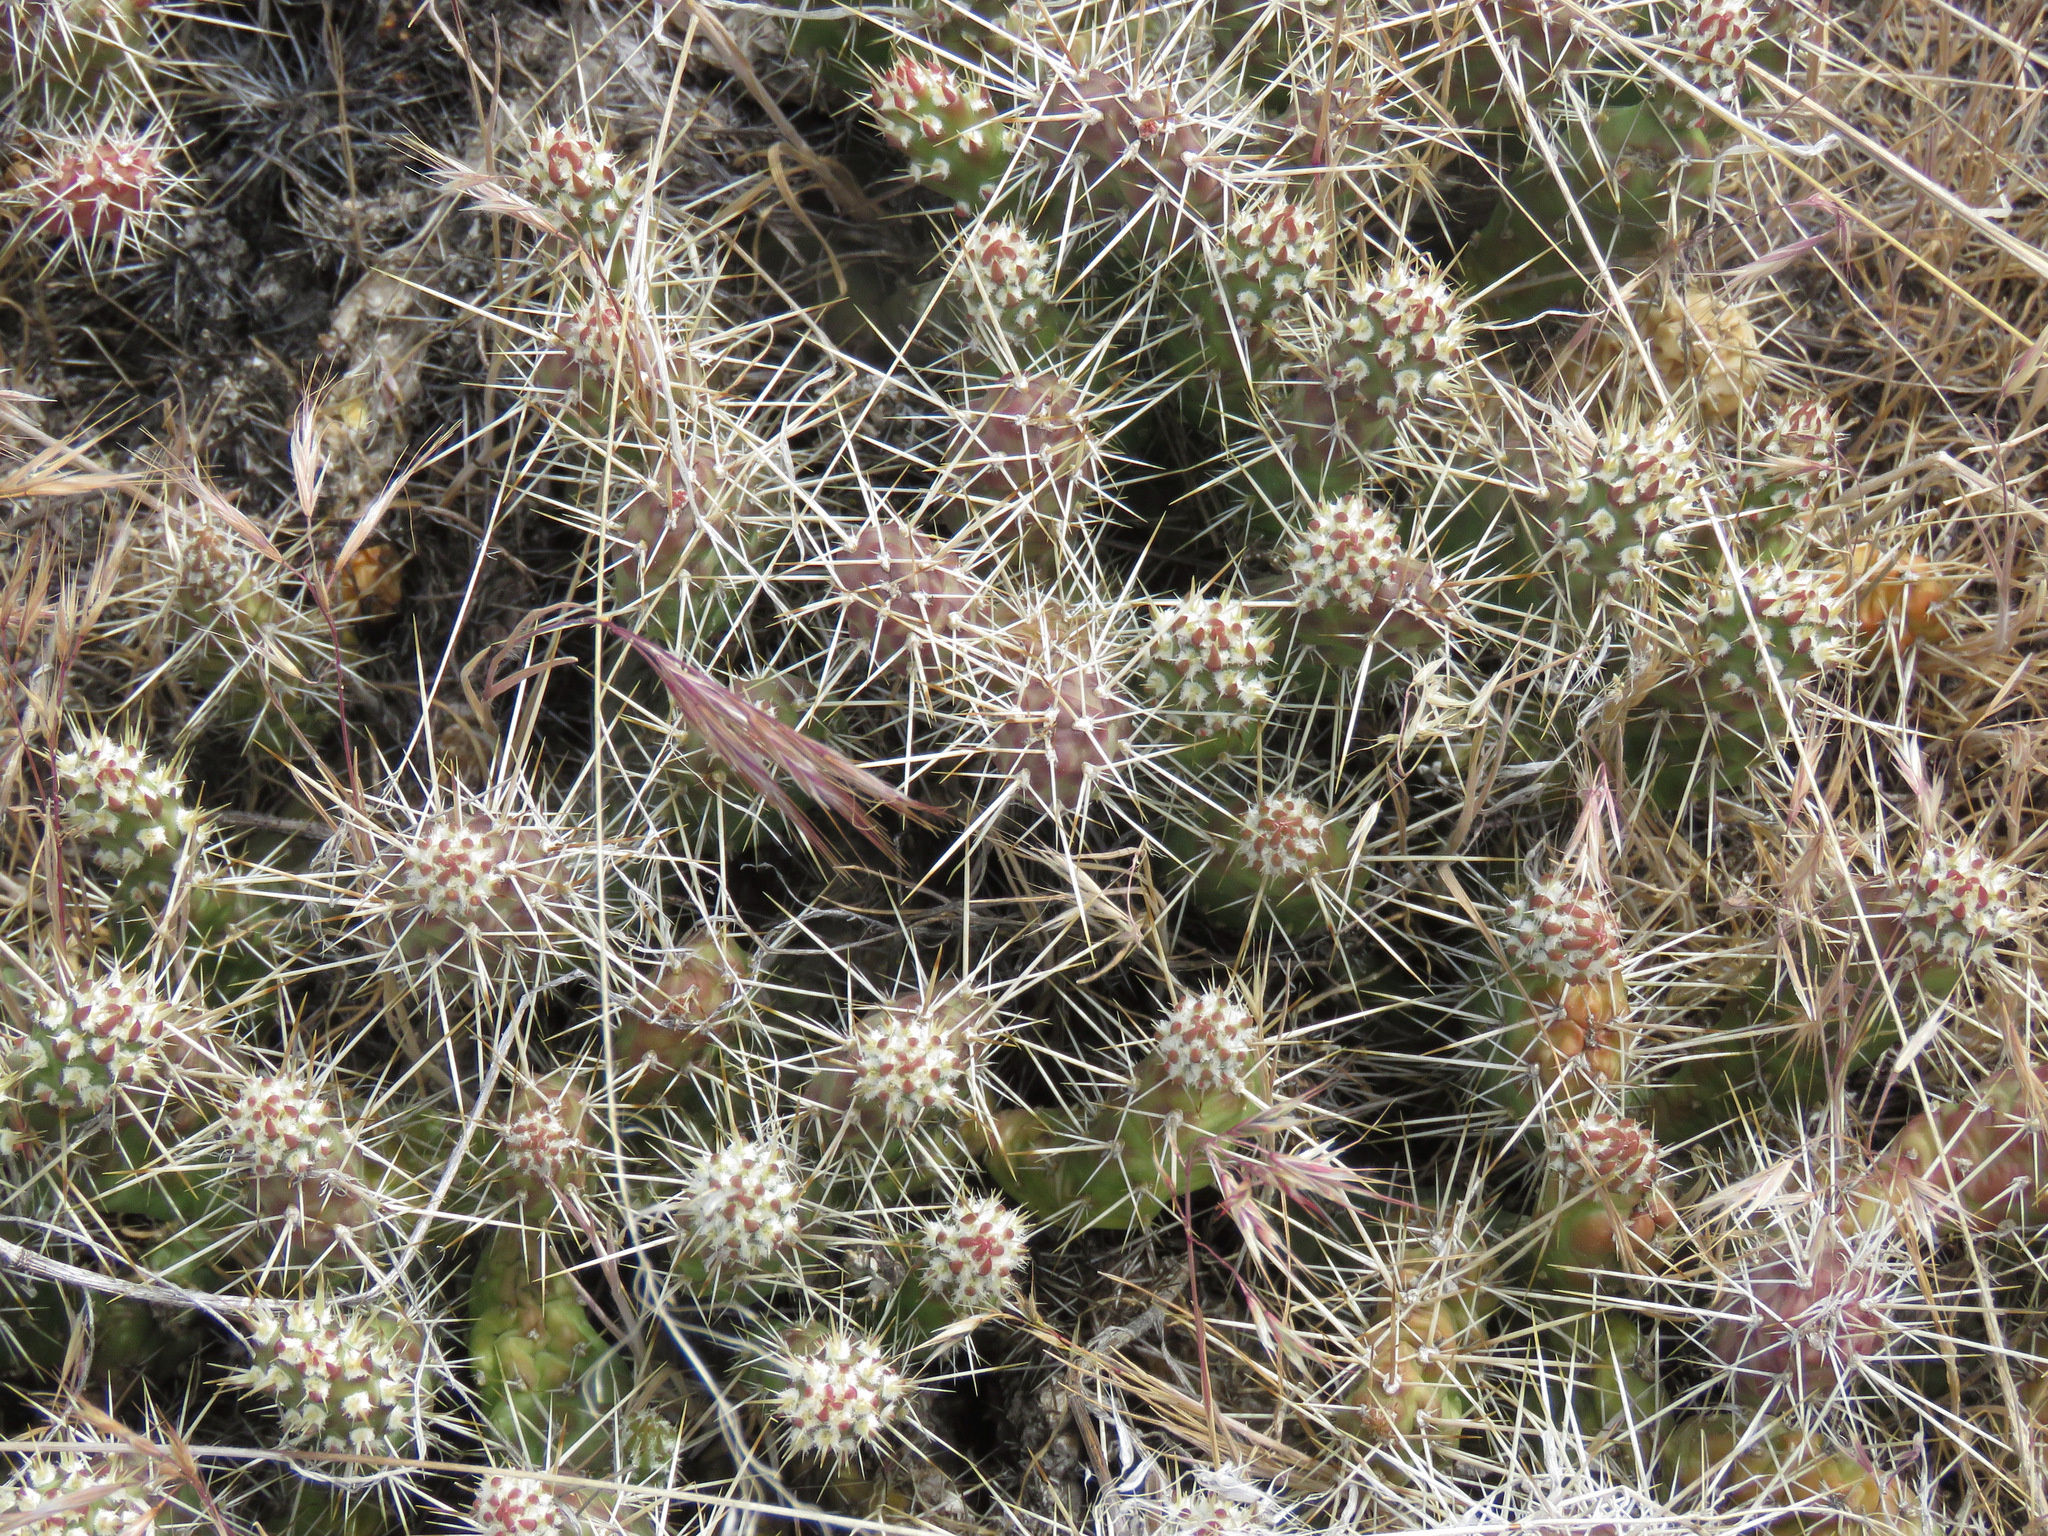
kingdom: Plantae
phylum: Tracheophyta
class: Magnoliopsida
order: Caryophyllales
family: Cactaceae
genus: Opuntia
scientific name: Opuntia fragilis
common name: Brittle cactus
